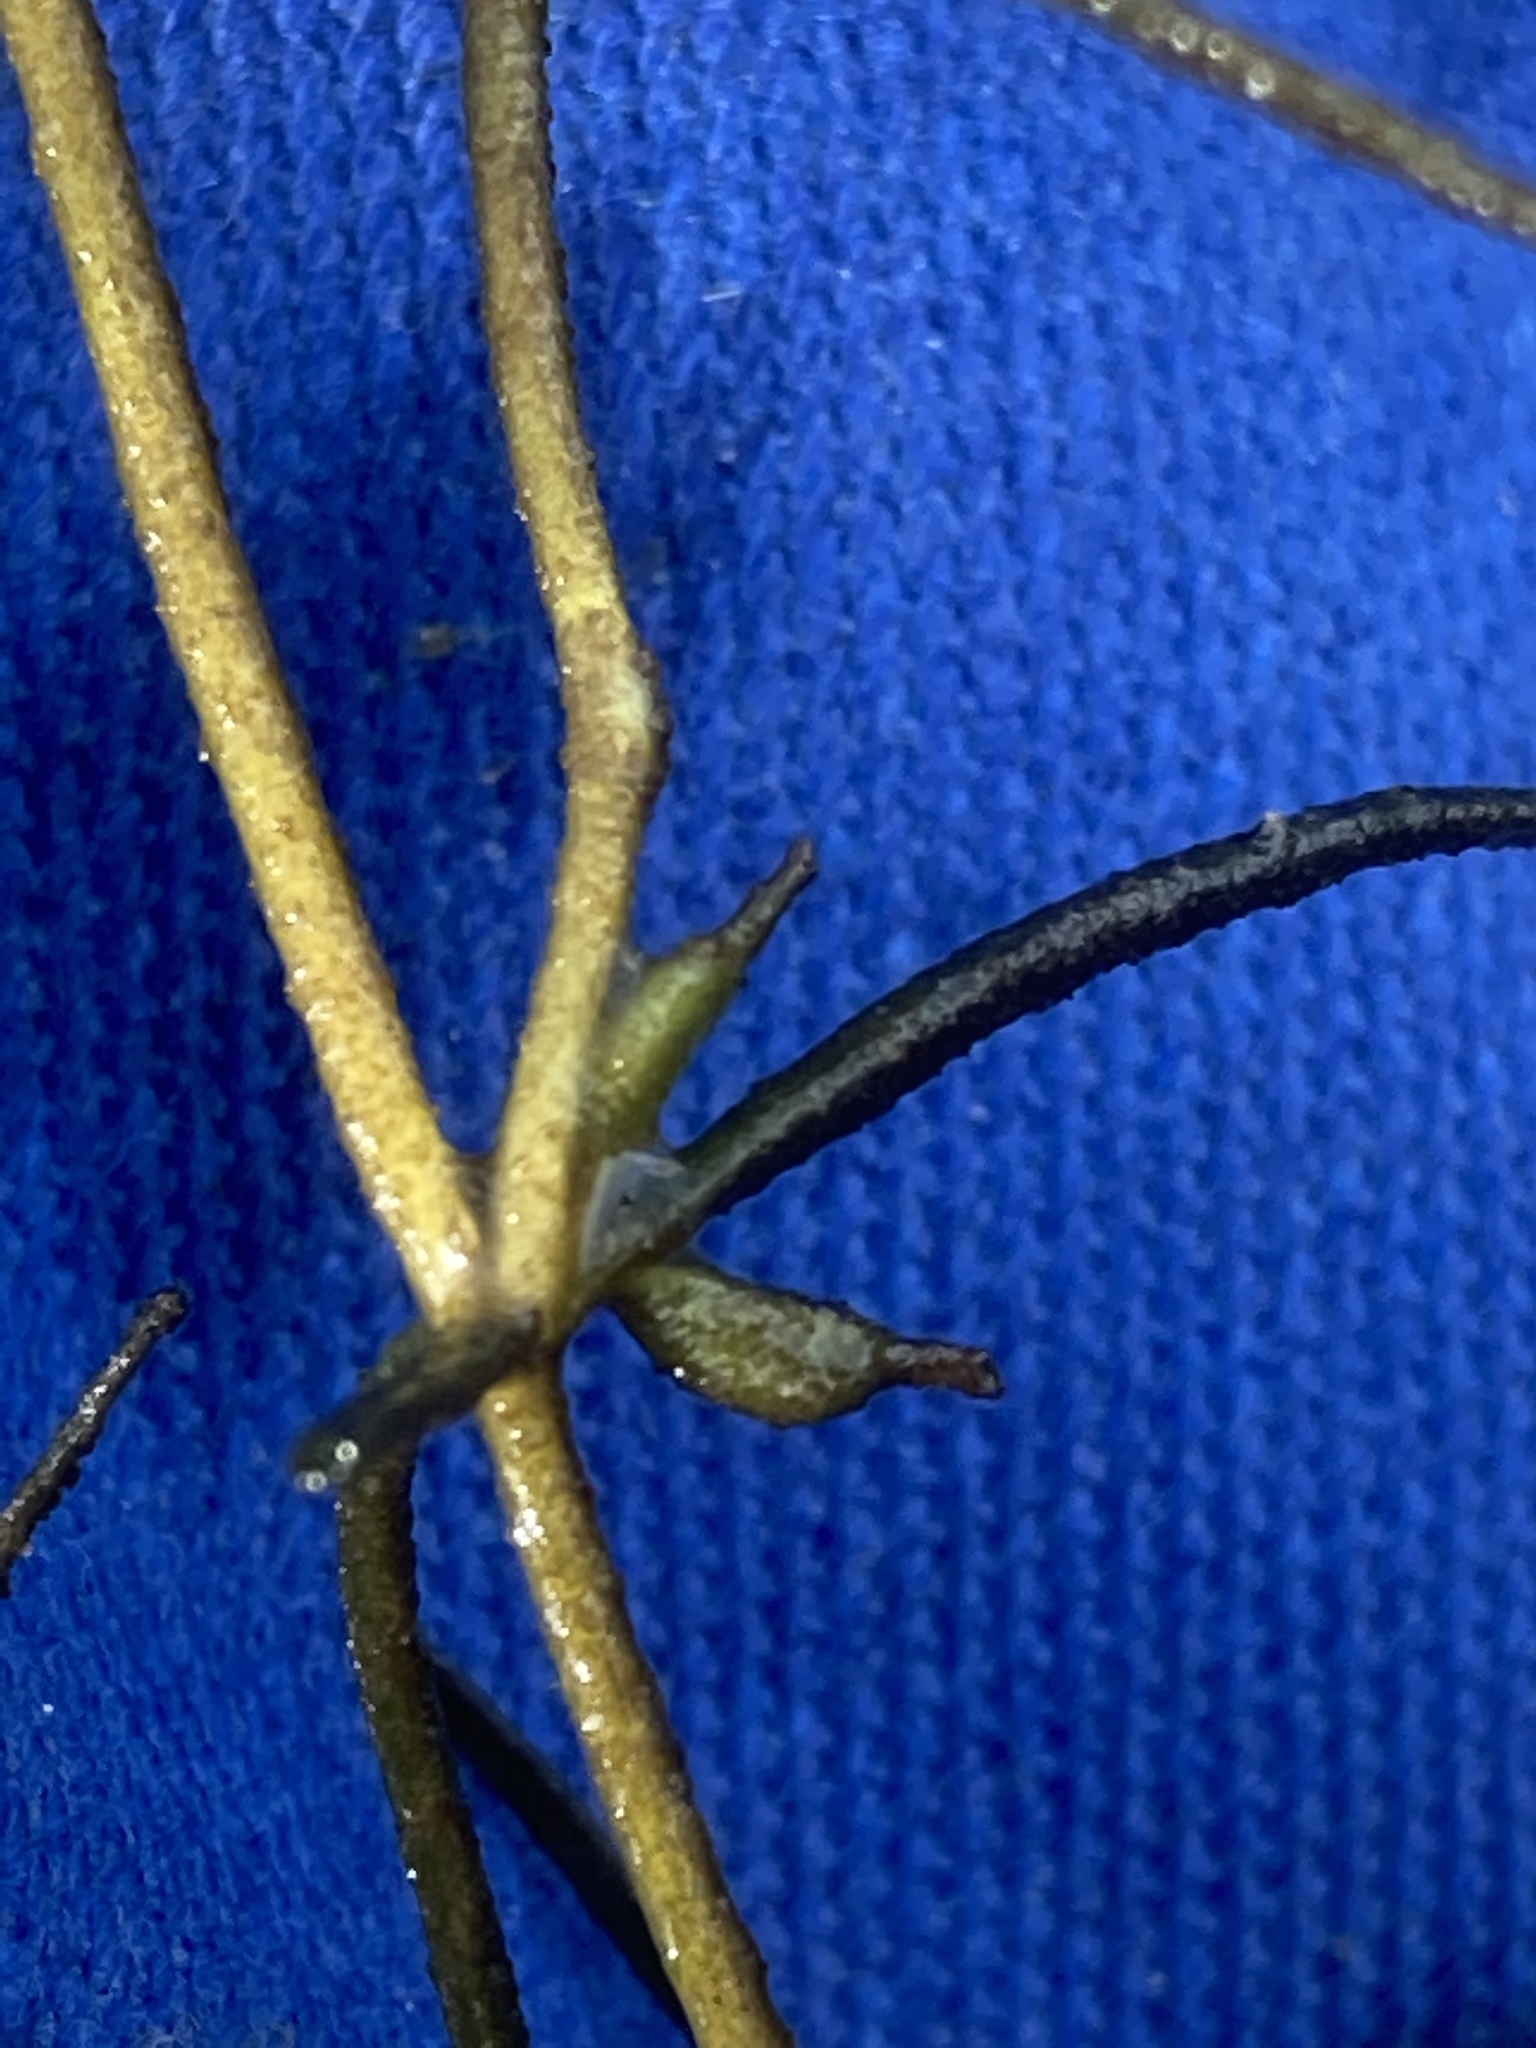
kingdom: Plantae
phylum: Tracheophyta
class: Liliopsida
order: Alismatales
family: Potamogetonaceae
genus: Zannichellia
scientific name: Zannichellia palustris
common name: Horned pondweed
